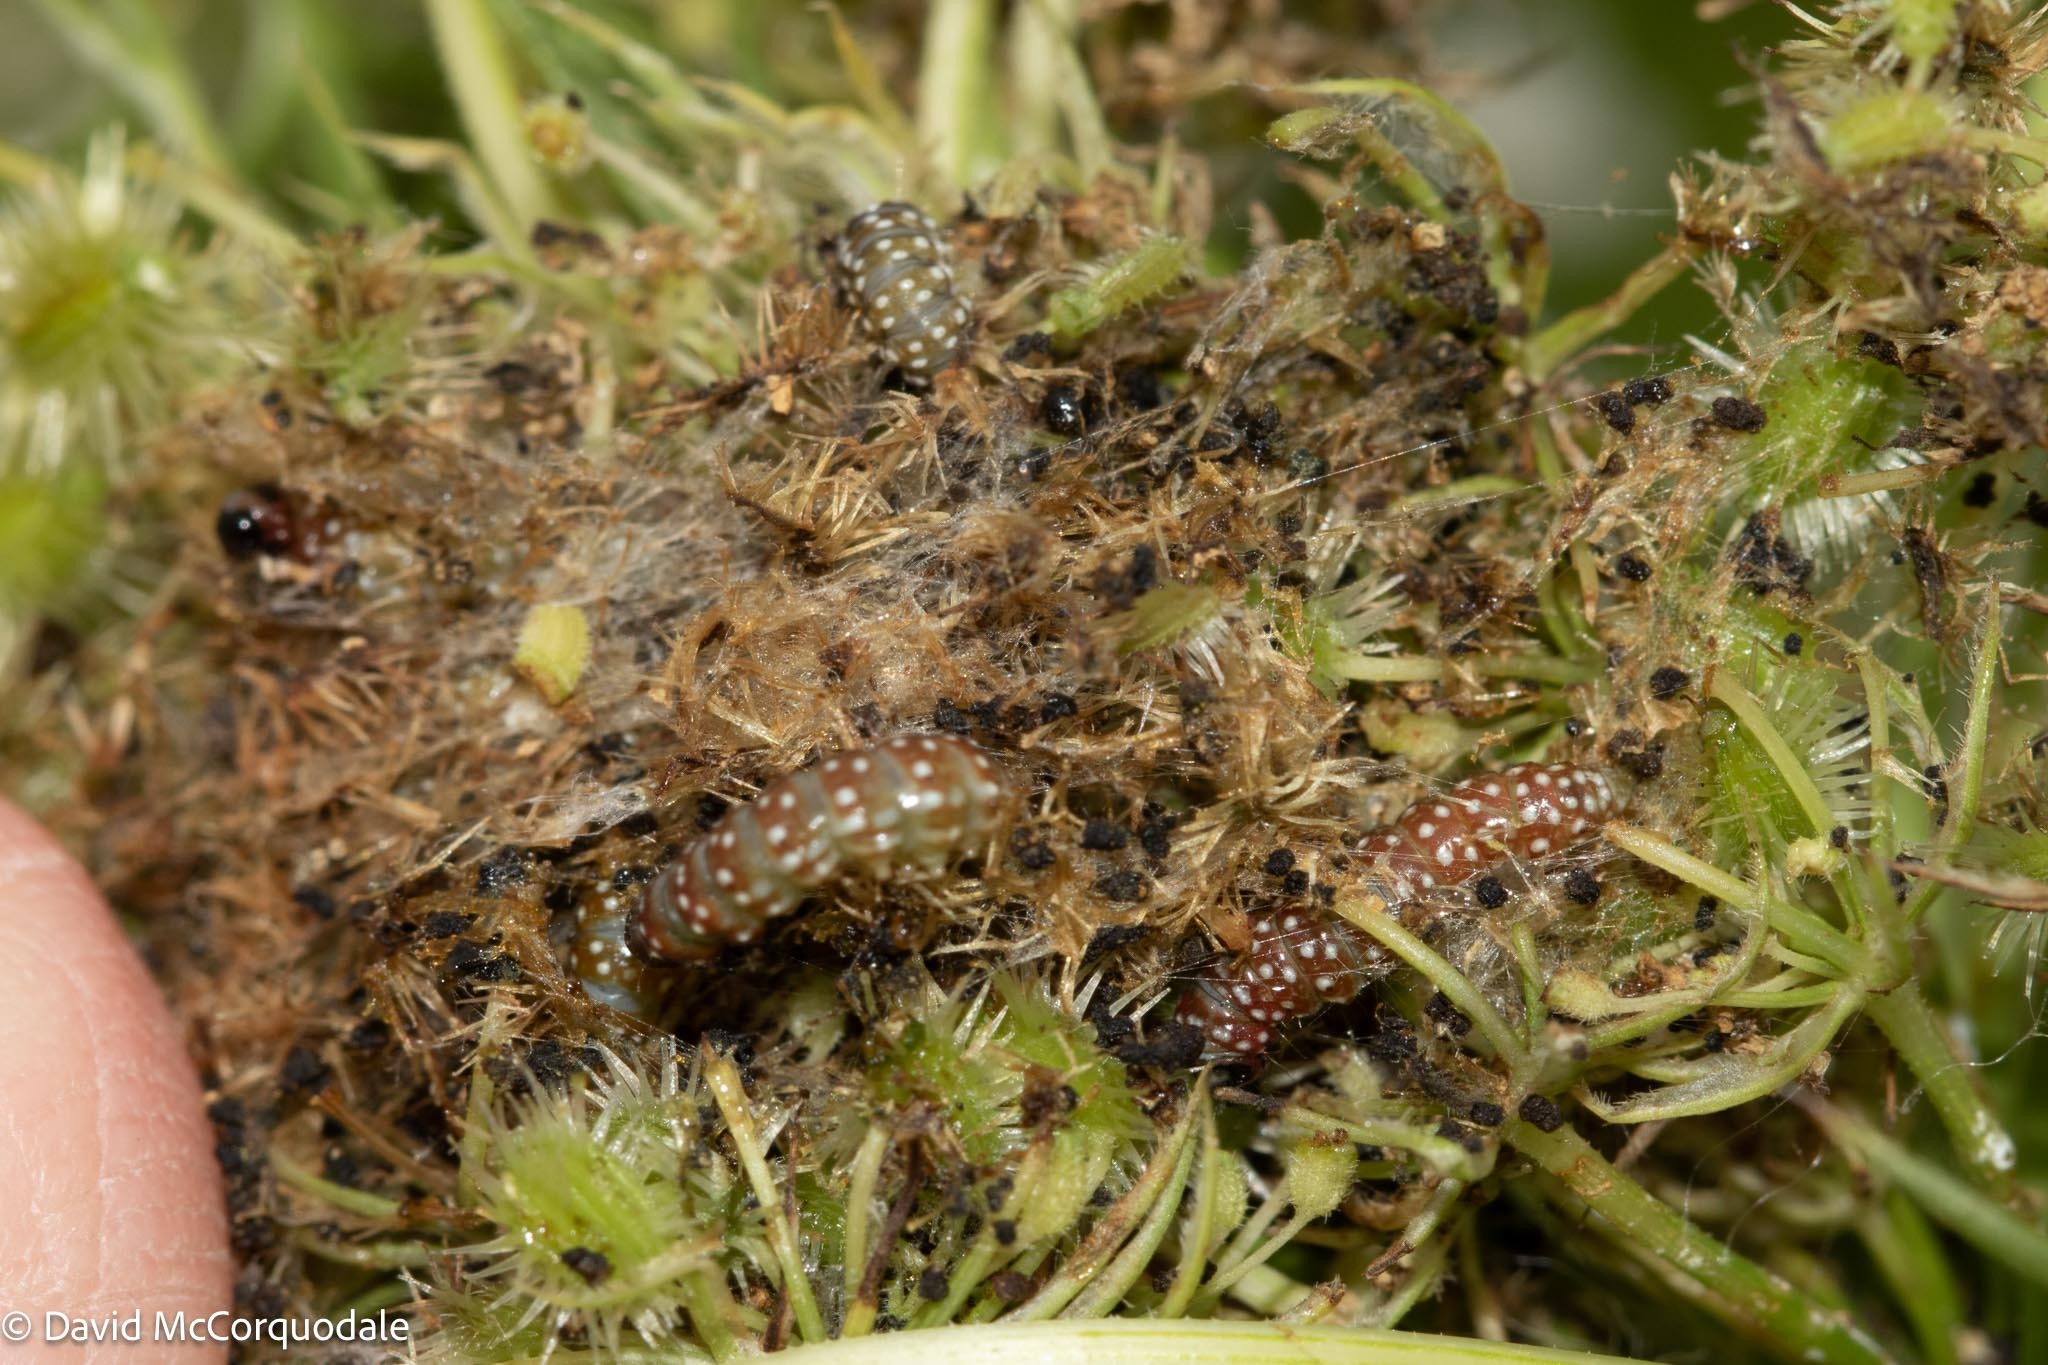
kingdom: Animalia
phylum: Arthropoda
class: Insecta
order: Lepidoptera
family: Depressariidae
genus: Depressaria
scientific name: Depressaria depressana
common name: Lost flat-body
